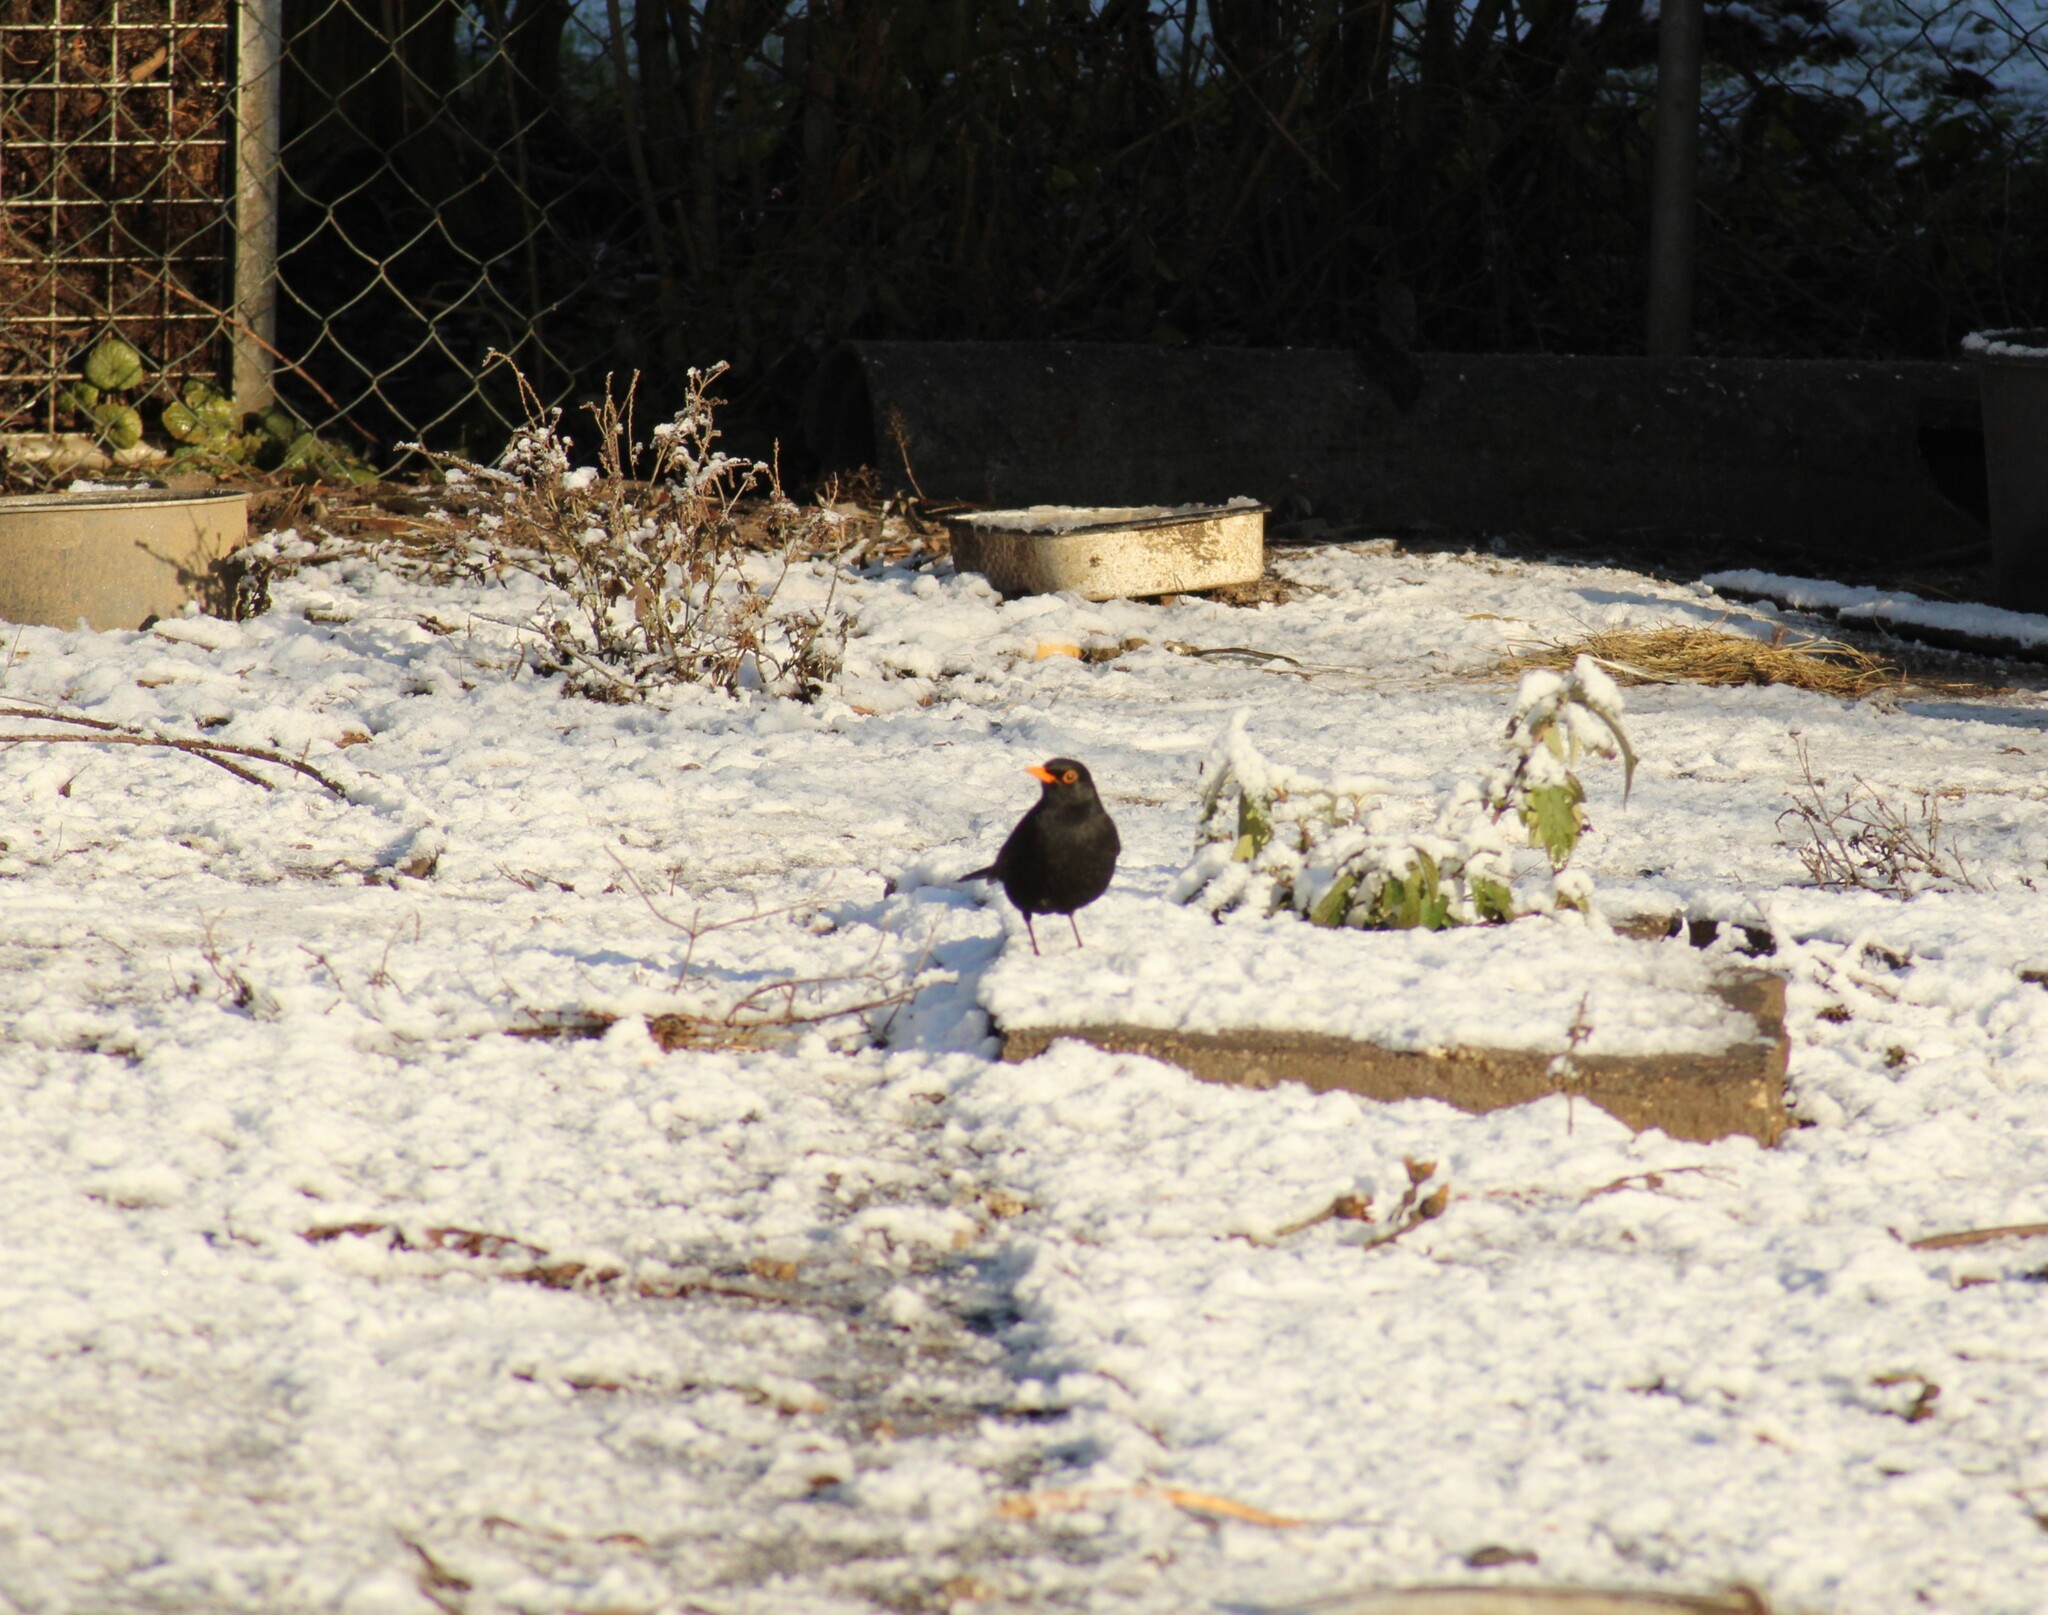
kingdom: Animalia
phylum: Chordata
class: Aves
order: Passeriformes
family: Turdidae
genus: Turdus
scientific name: Turdus merula
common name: Common blackbird
